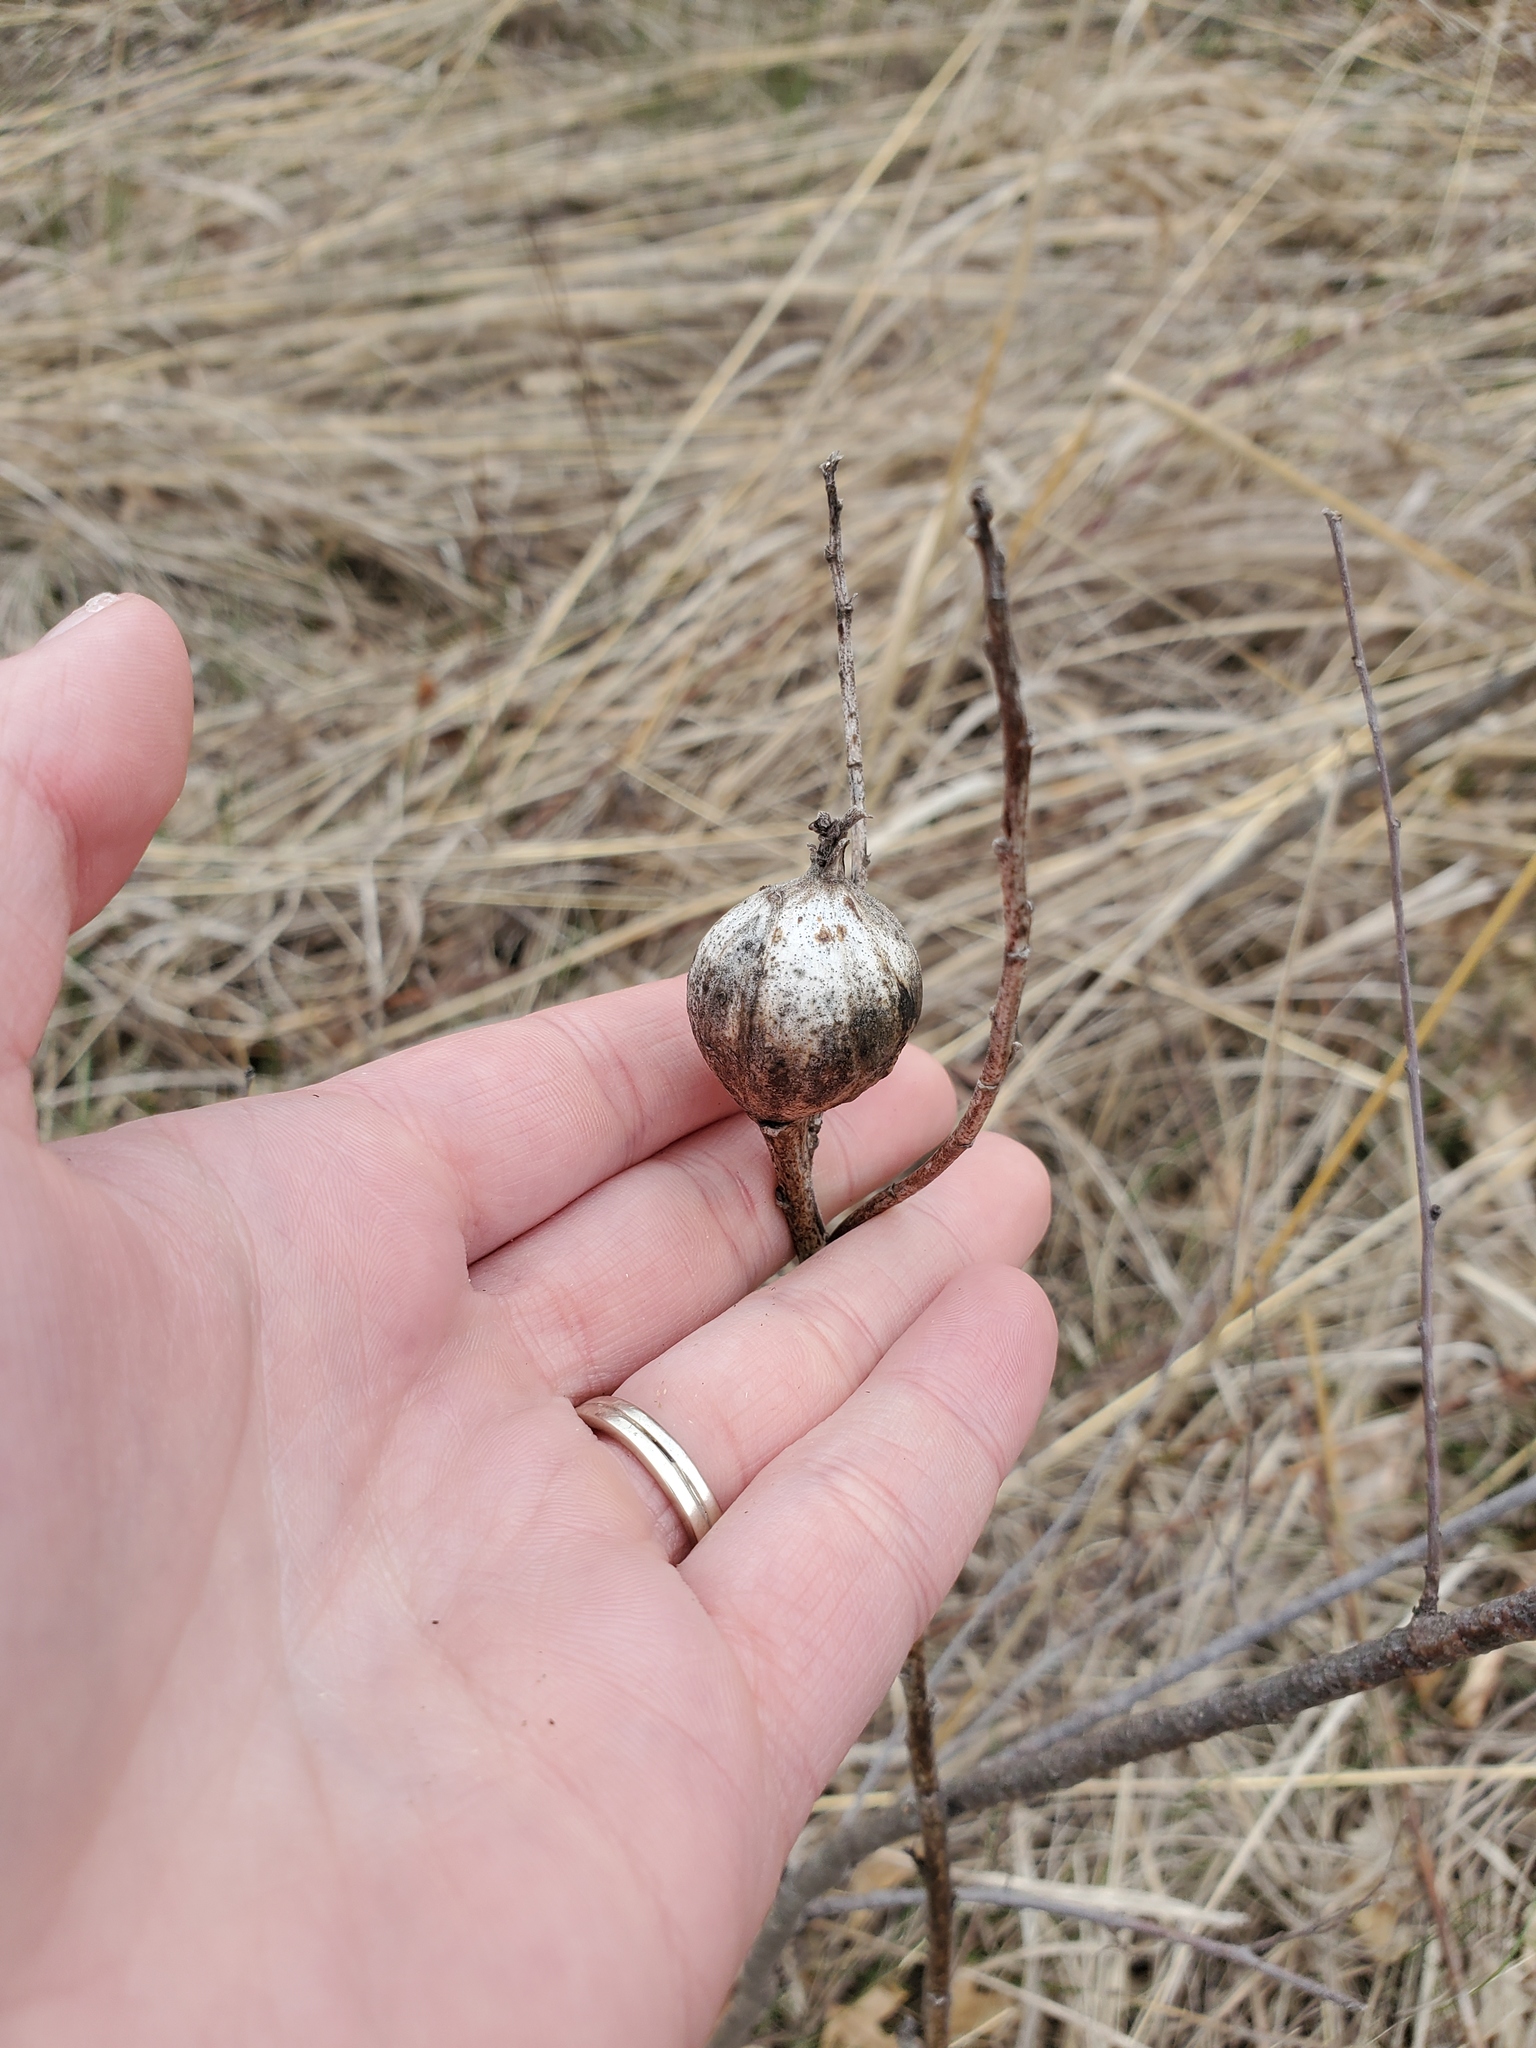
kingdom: Animalia
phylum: Arthropoda
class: Insecta
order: Diptera
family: Tephritidae
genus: Eurosta
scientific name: Eurosta solidaginis
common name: Goldenrod gall fly
